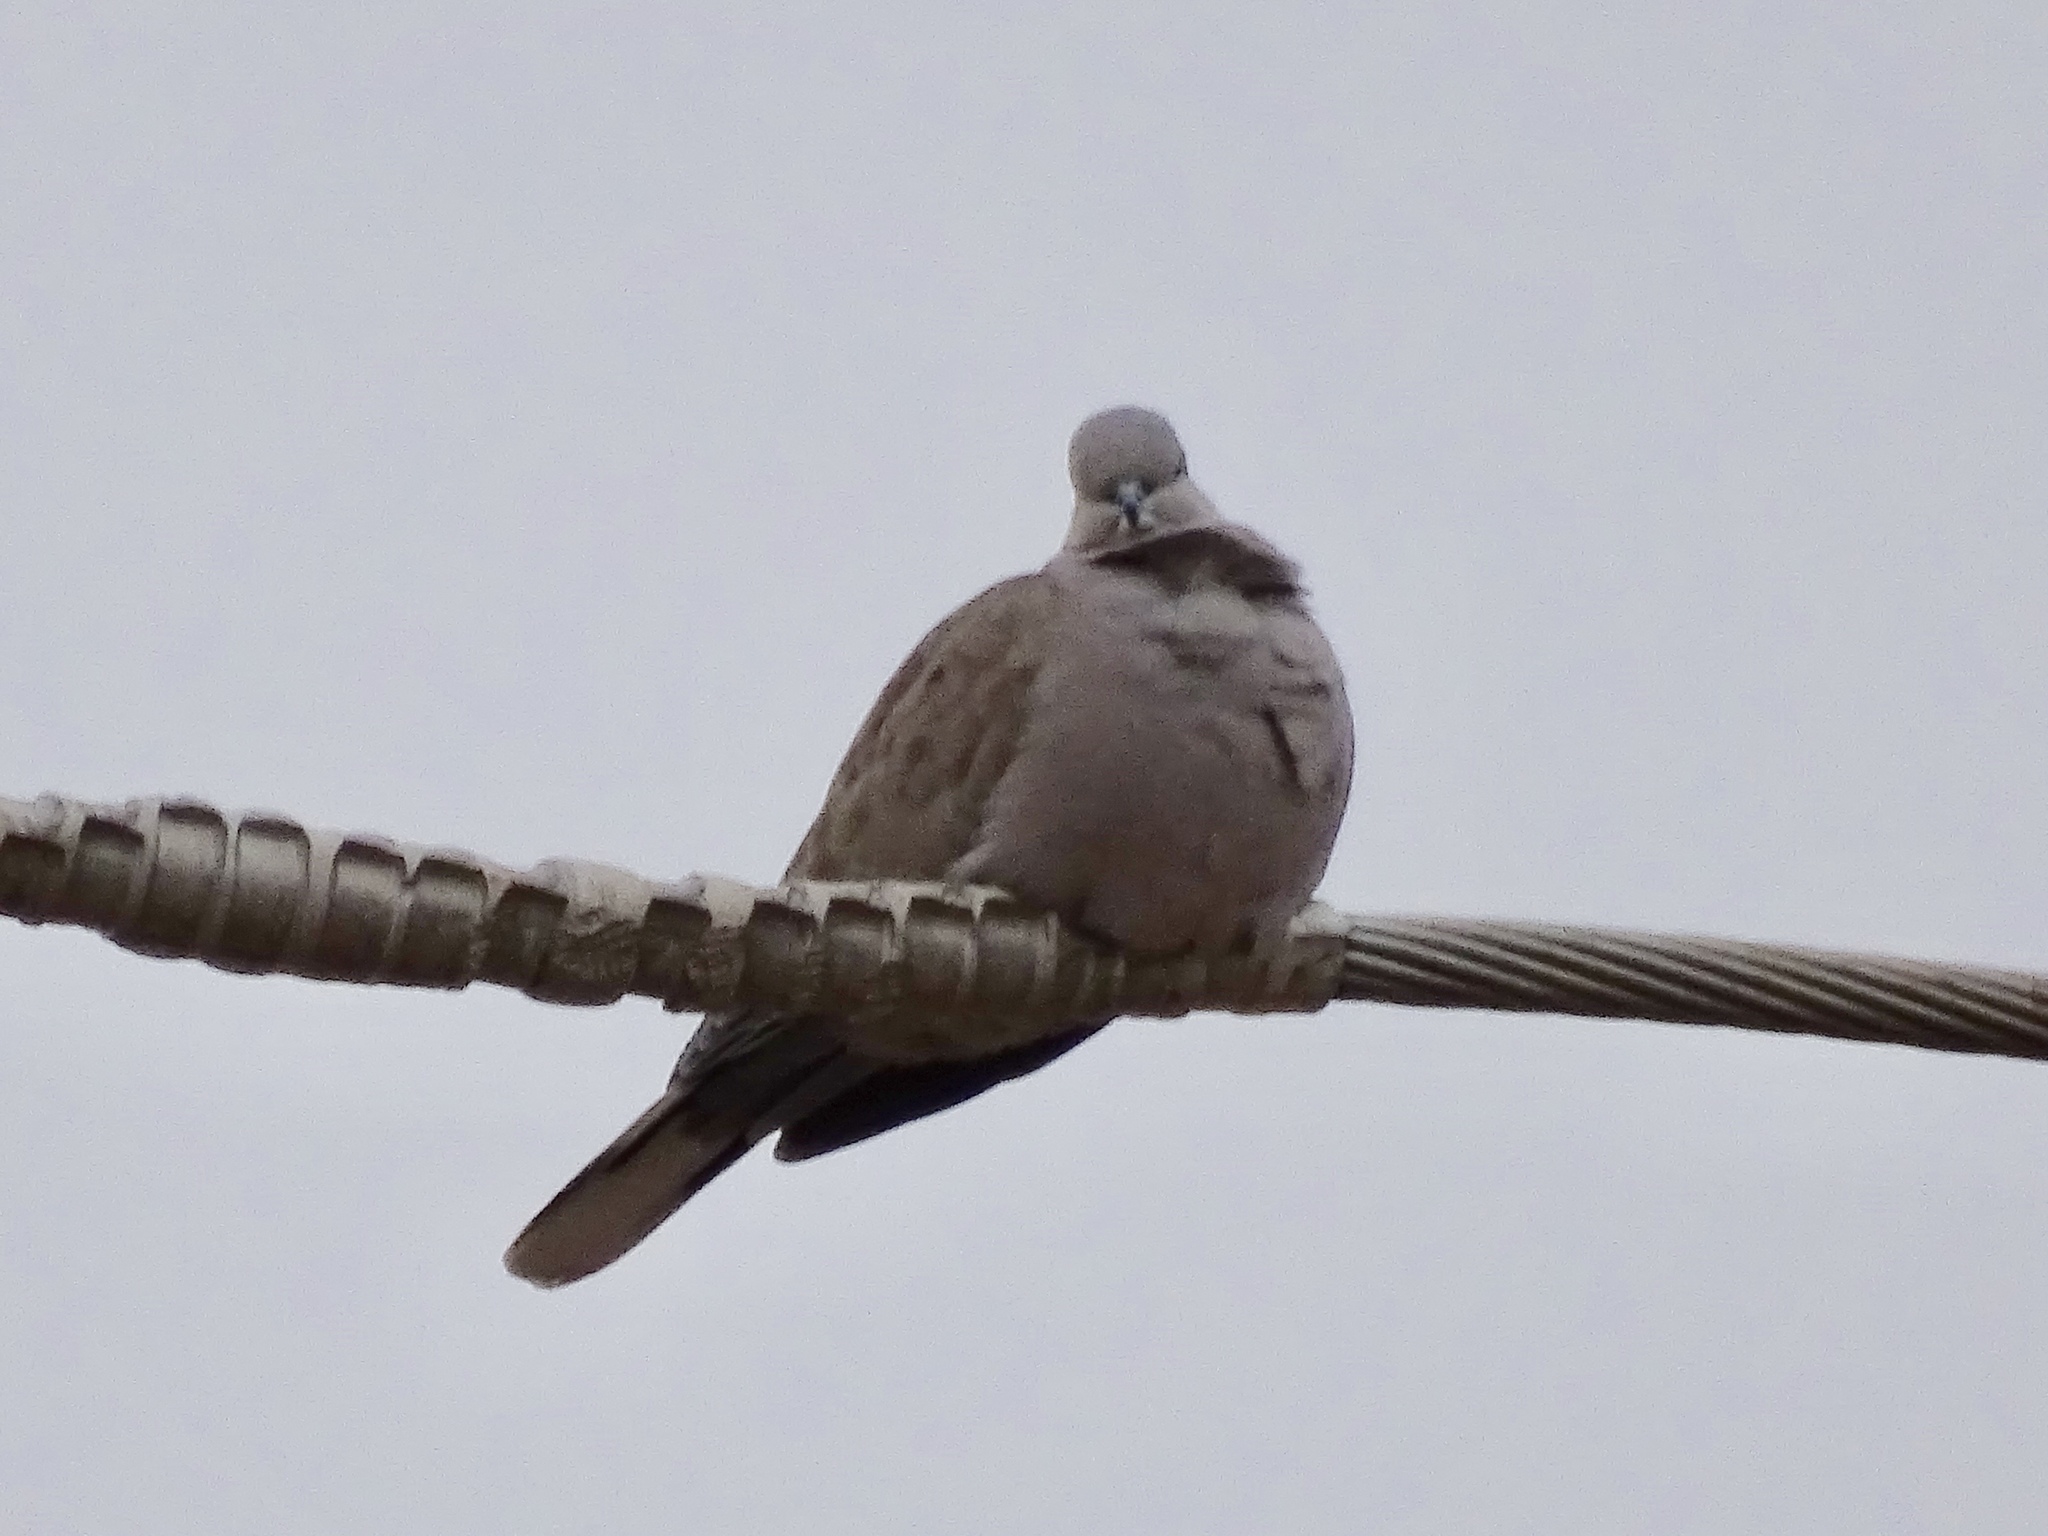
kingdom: Animalia
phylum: Chordata
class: Aves
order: Columbiformes
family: Columbidae
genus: Streptopelia
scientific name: Streptopelia decaocto
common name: Eurasian collared dove
